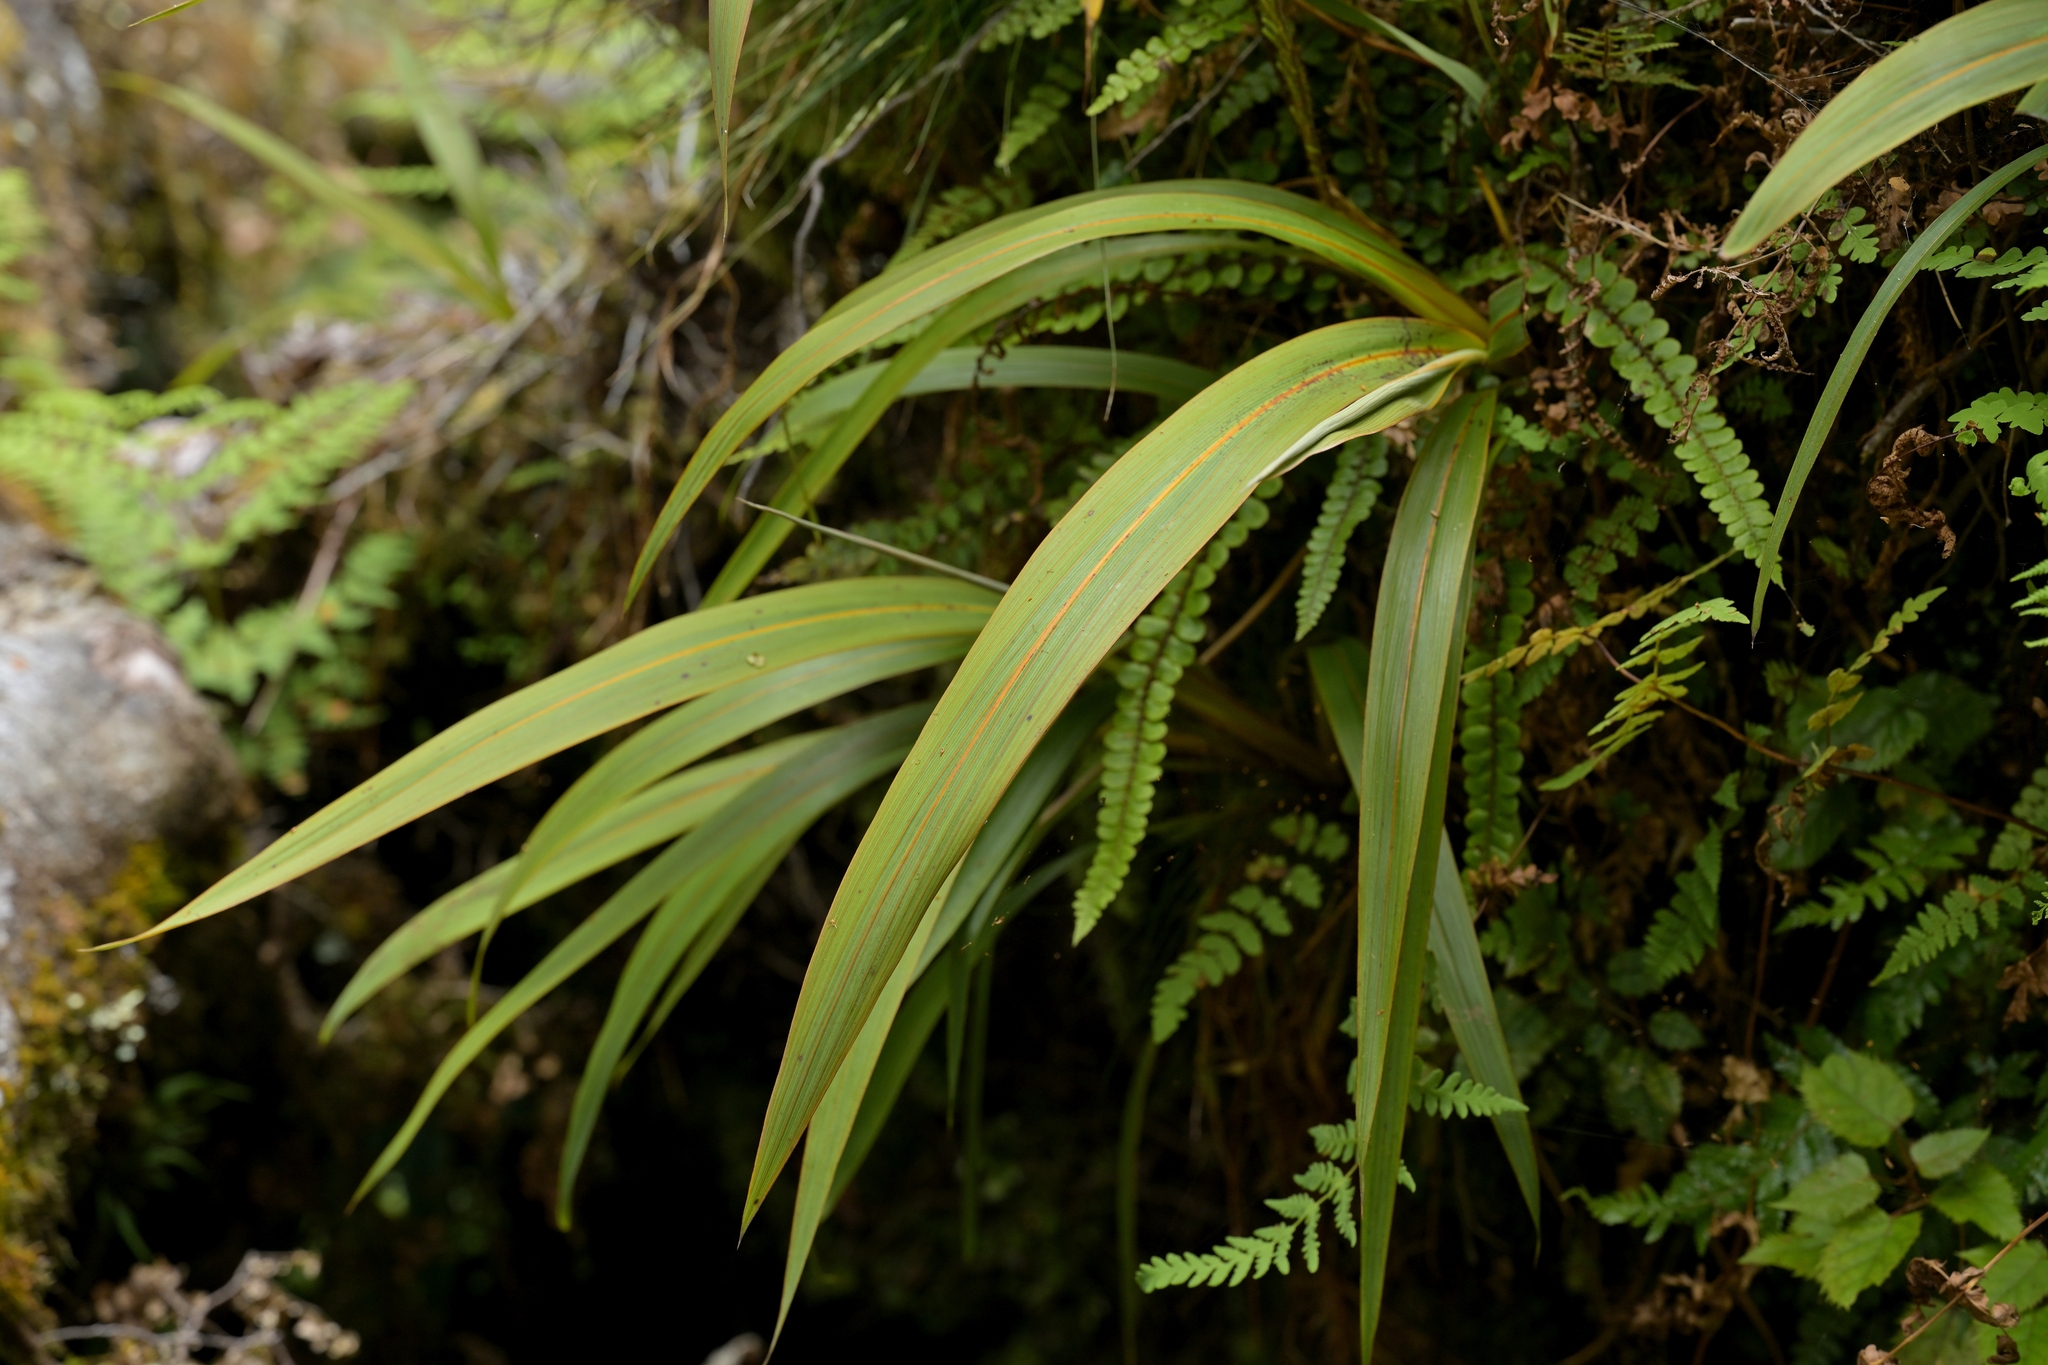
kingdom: Plantae
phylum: Tracheophyta
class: Liliopsida
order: Asparagales
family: Asparagaceae
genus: Cordyline
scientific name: Cordyline indivisa
